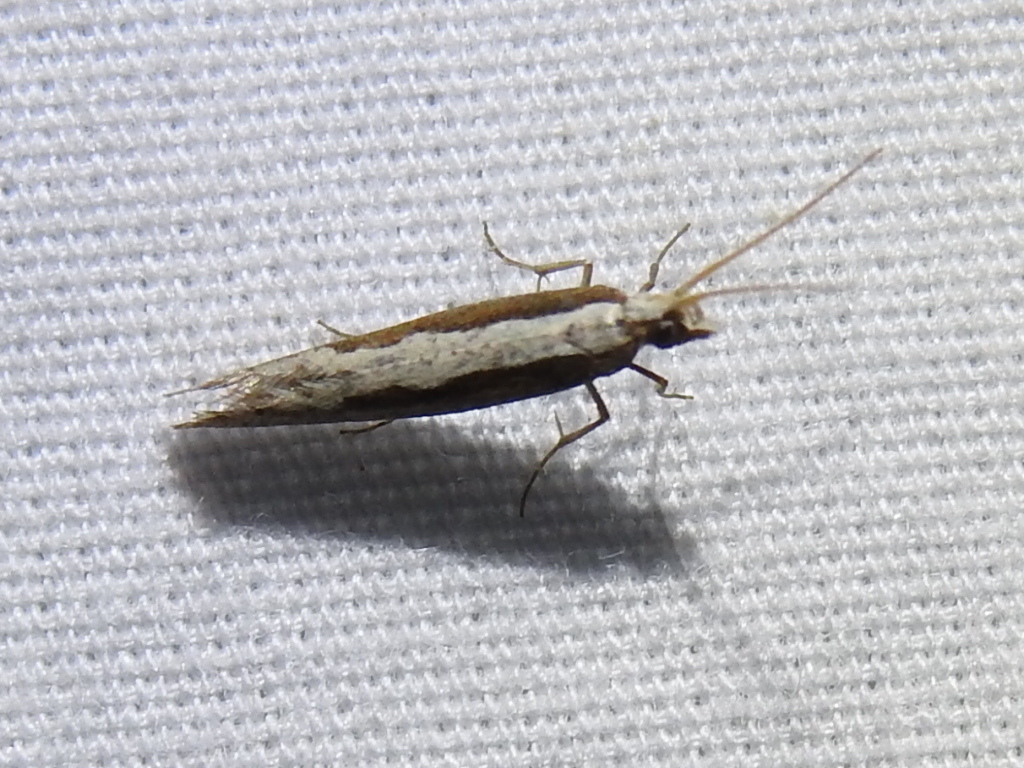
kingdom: Animalia
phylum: Arthropoda
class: Insecta
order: Lepidoptera
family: Plutellidae
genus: Plutella
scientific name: Plutella xylostella
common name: Diamond-back moth
